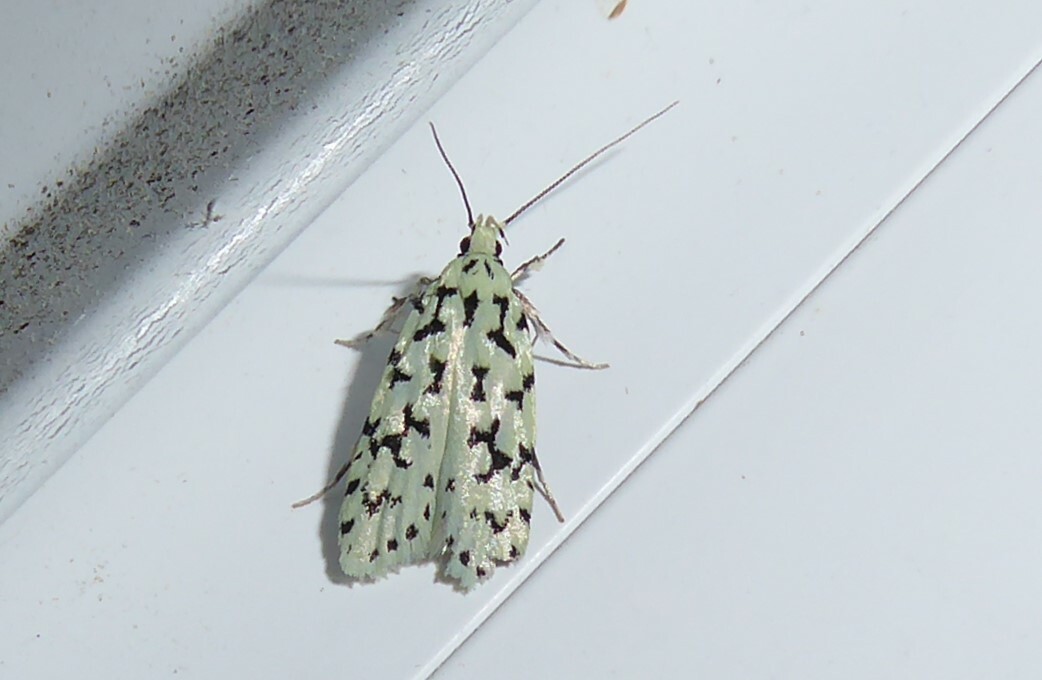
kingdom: Animalia
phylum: Arthropoda
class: Insecta
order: Lepidoptera
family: Oecophoridae
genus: Izatha
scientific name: Izatha huttoni
